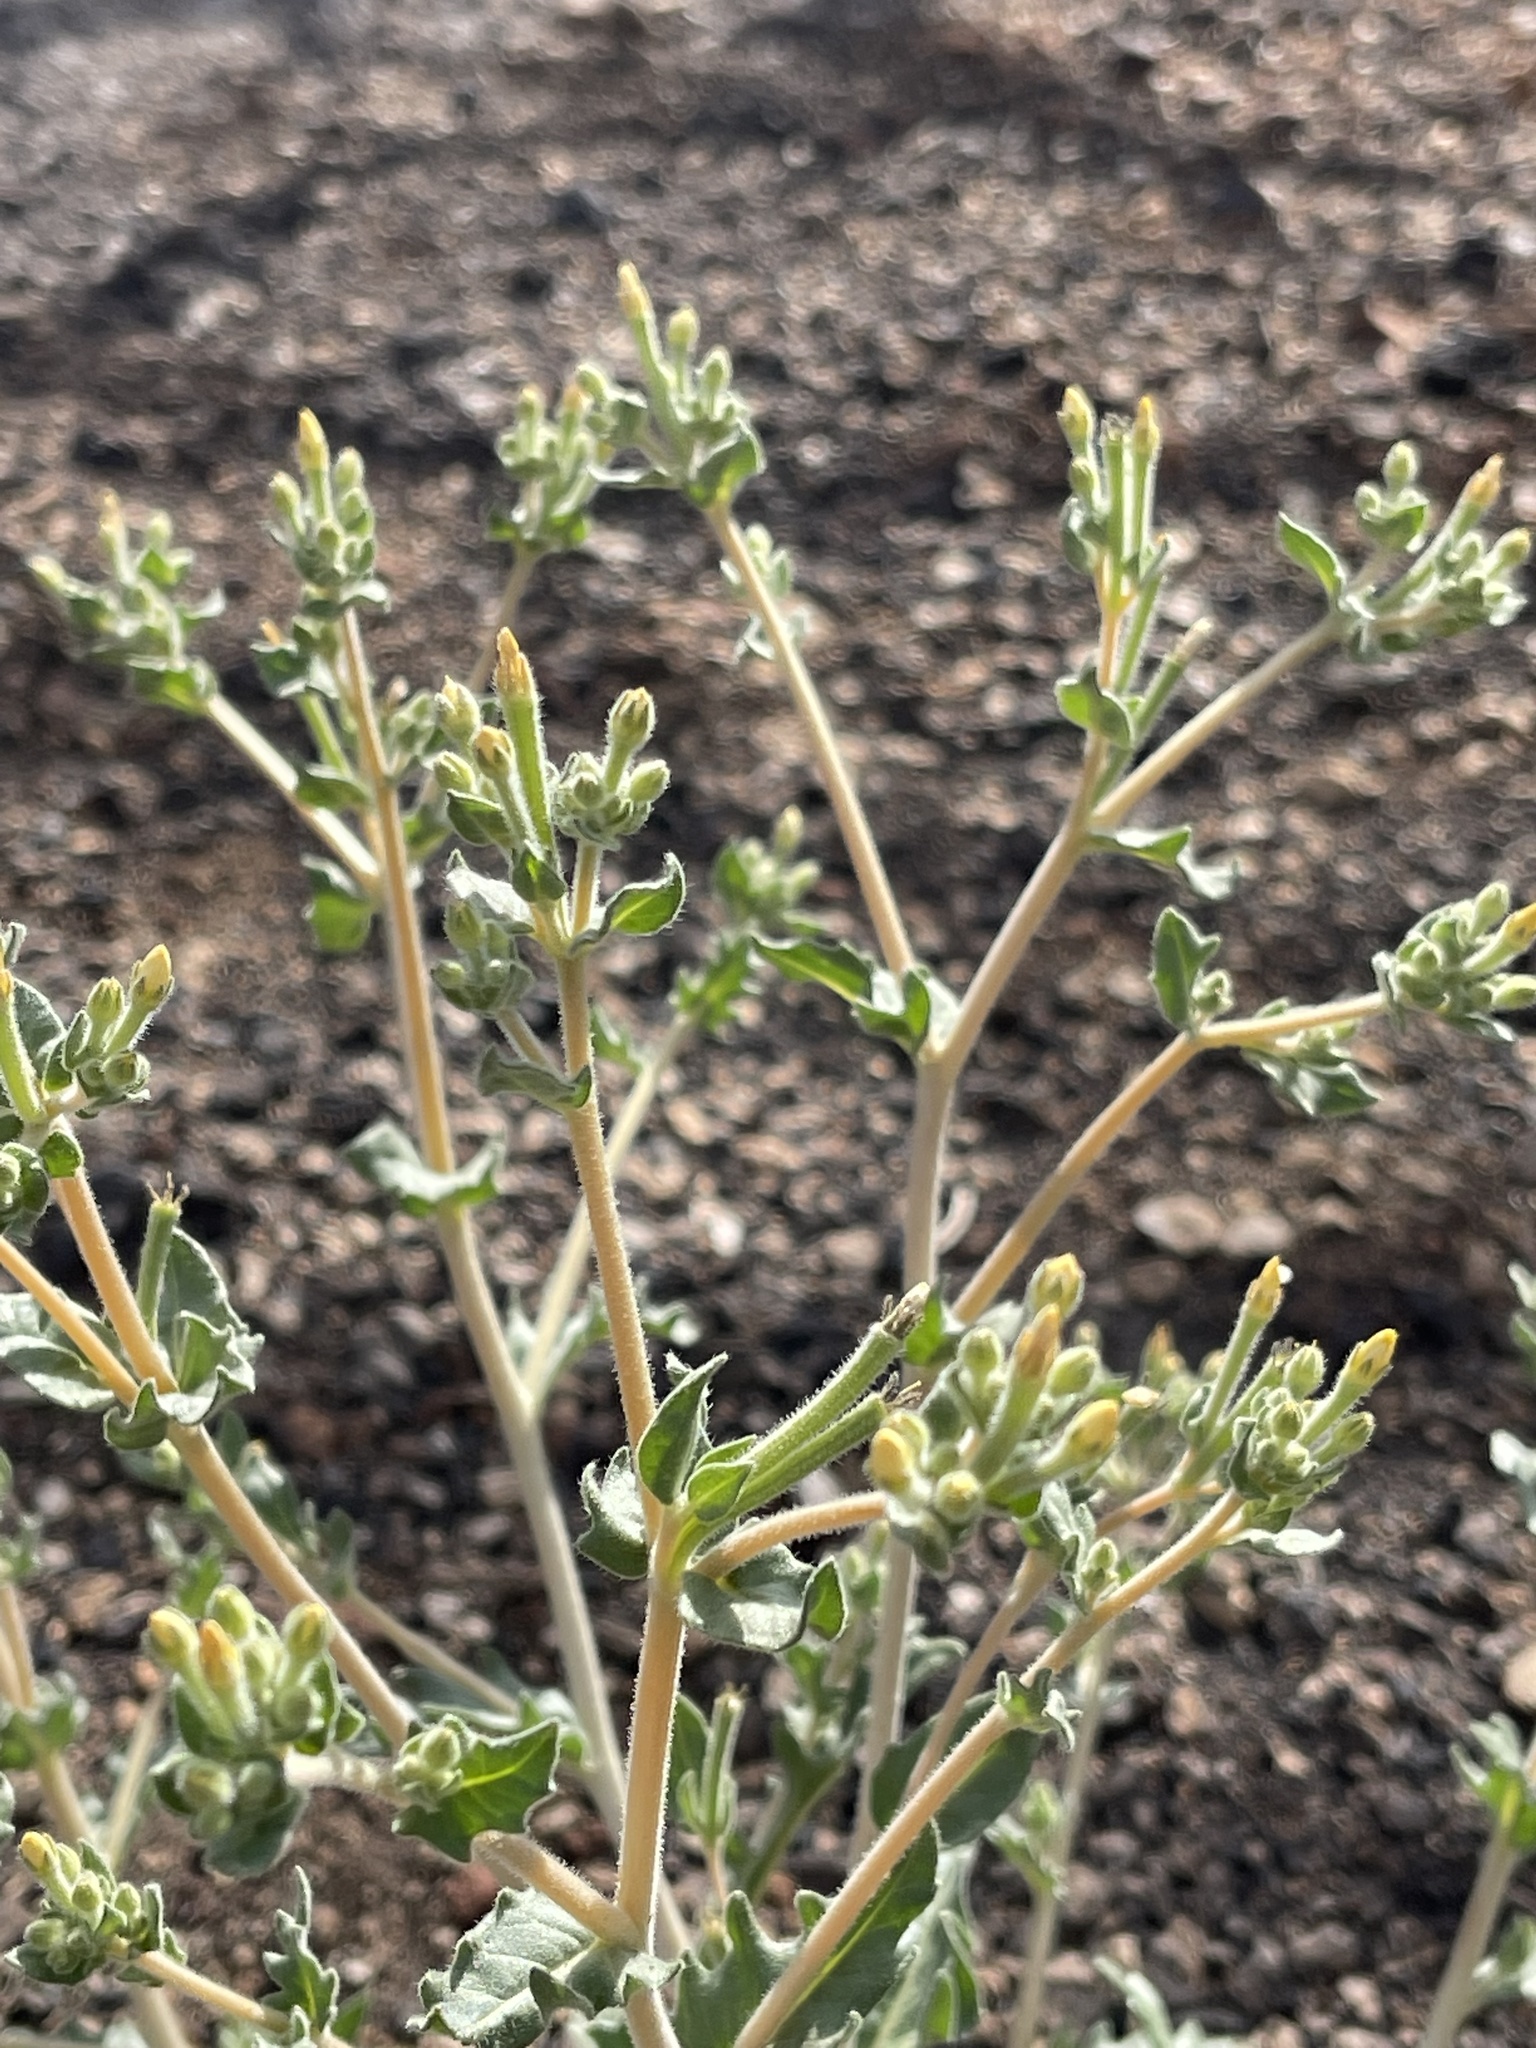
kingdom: Plantae
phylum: Tracheophyta
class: Magnoliopsida
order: Cornales
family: Loasaceae
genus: Mentzelia
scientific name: Mentzelia albicaulis
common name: White-stem blazingstar
